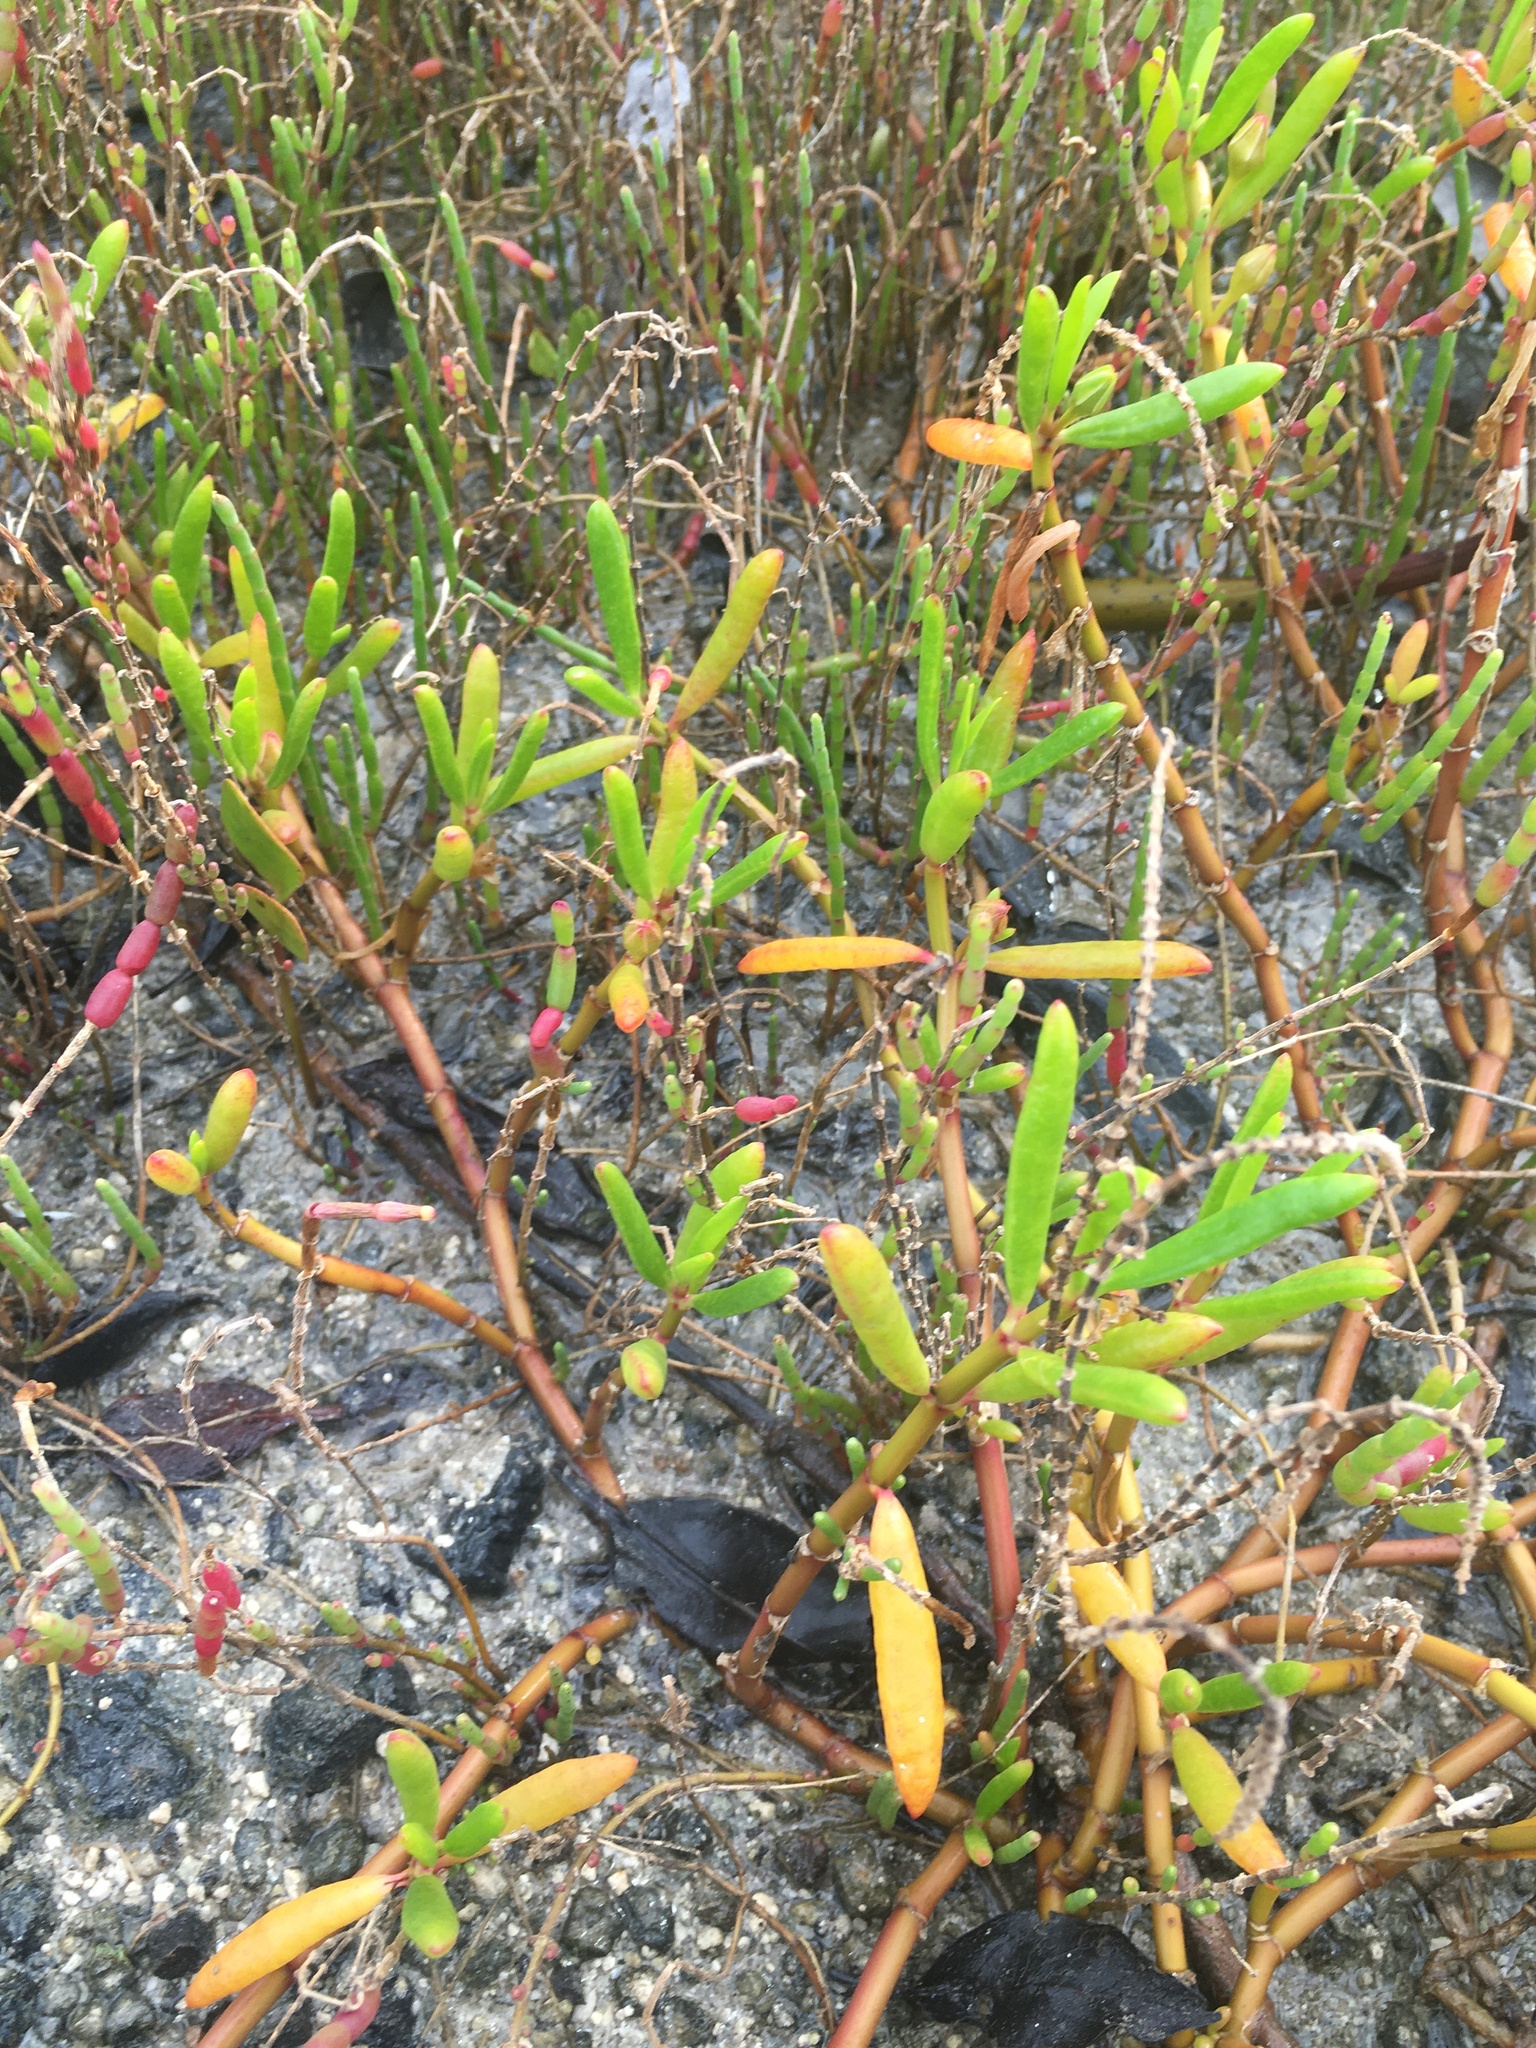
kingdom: Plantae
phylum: Tracheophyta
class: Magnoliopsida
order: Caryophyllales
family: Aizoaceae
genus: Sesuvium
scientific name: Sesuvium portulacastrum
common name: Sea-purslane
